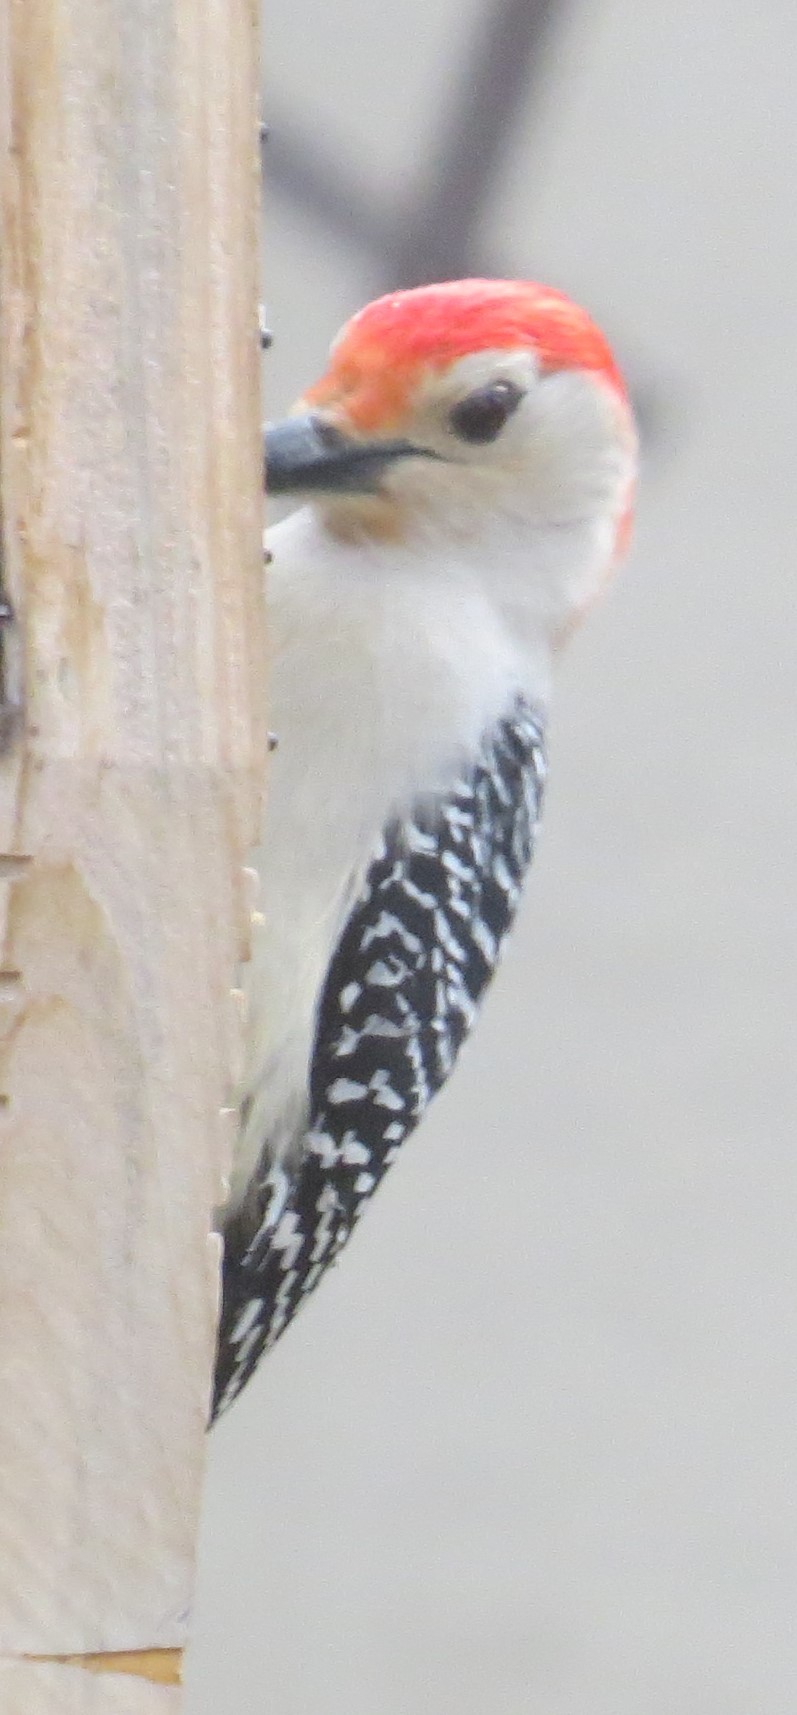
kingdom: Animalia
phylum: Chordata
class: Aves
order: Piciformes
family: Picidae
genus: Melanerpes
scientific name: Melanerpes carolinus
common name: Red-bellied woodpecker
